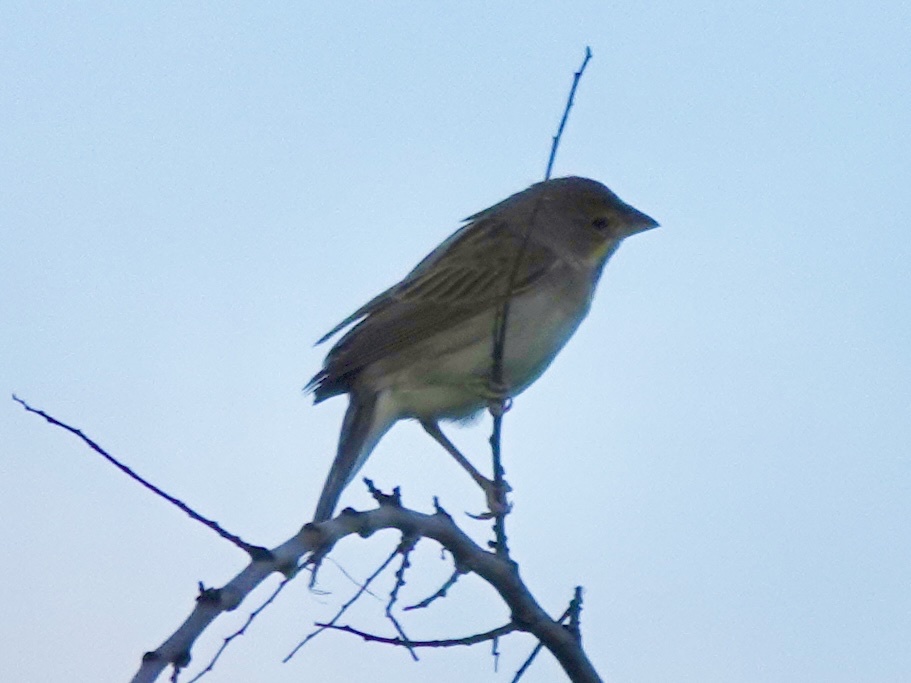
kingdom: Animalia
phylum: Chordata
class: Aves
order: Passeriformes
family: Cardinalidae
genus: Spiza
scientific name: Spiza americana
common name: Dickcissel
